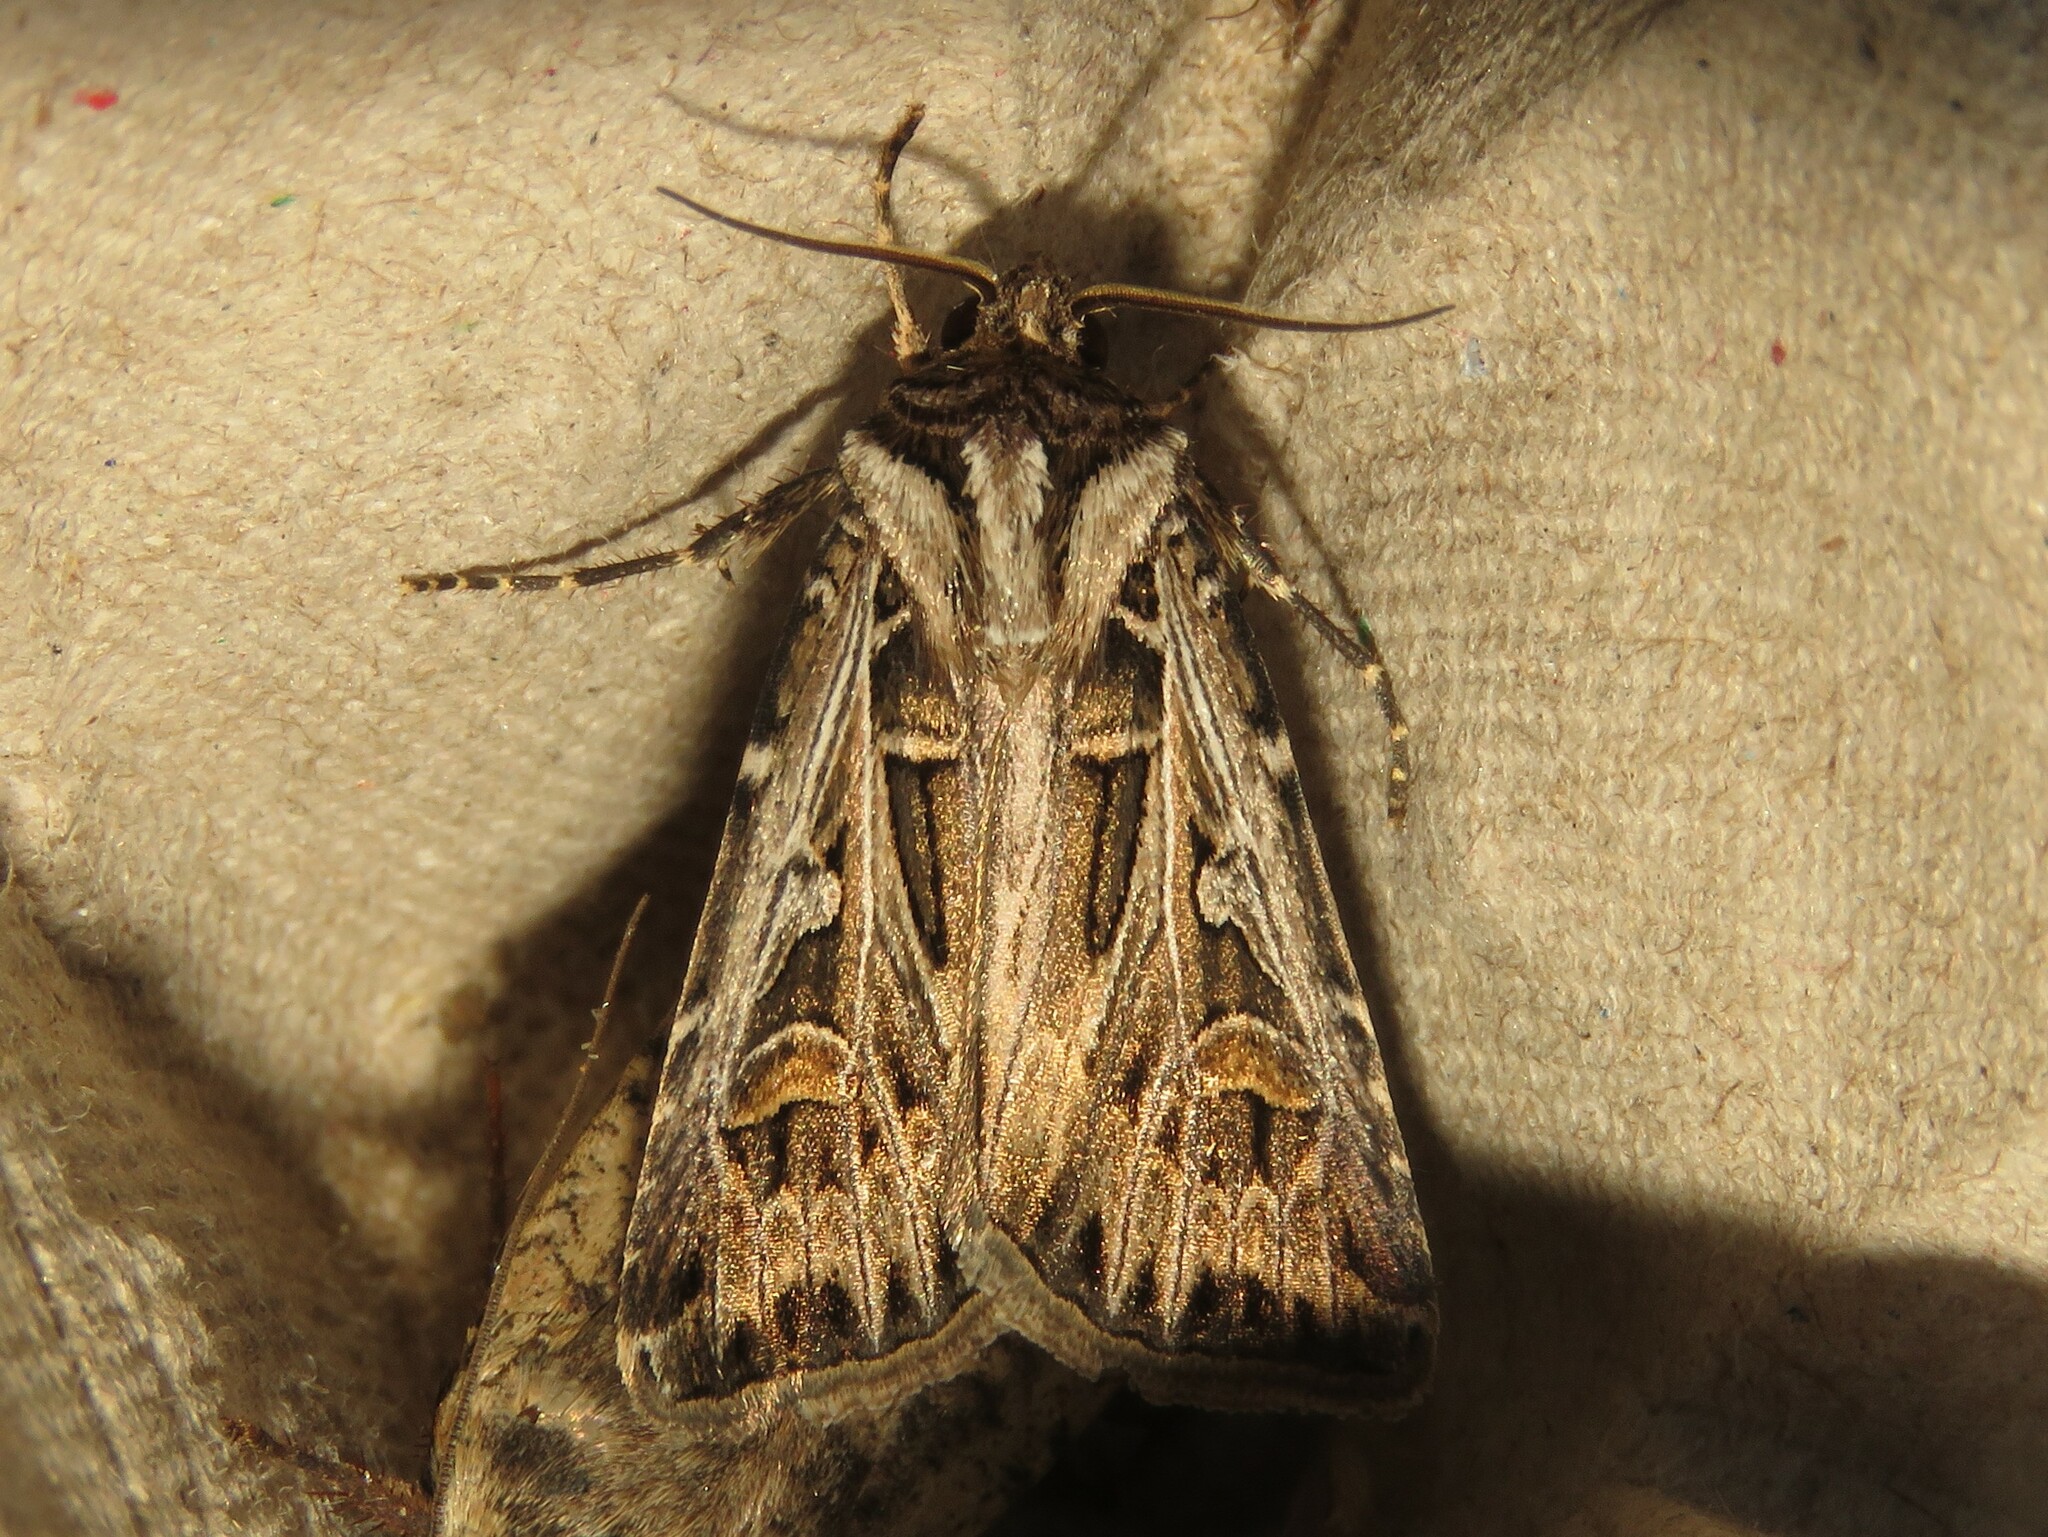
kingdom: Animalia
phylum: Arthropoda
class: Insecta
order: Lepidoptera
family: Noctuidae
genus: Feltia
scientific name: Feltia jaculifera
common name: Dingy cutworm moth
